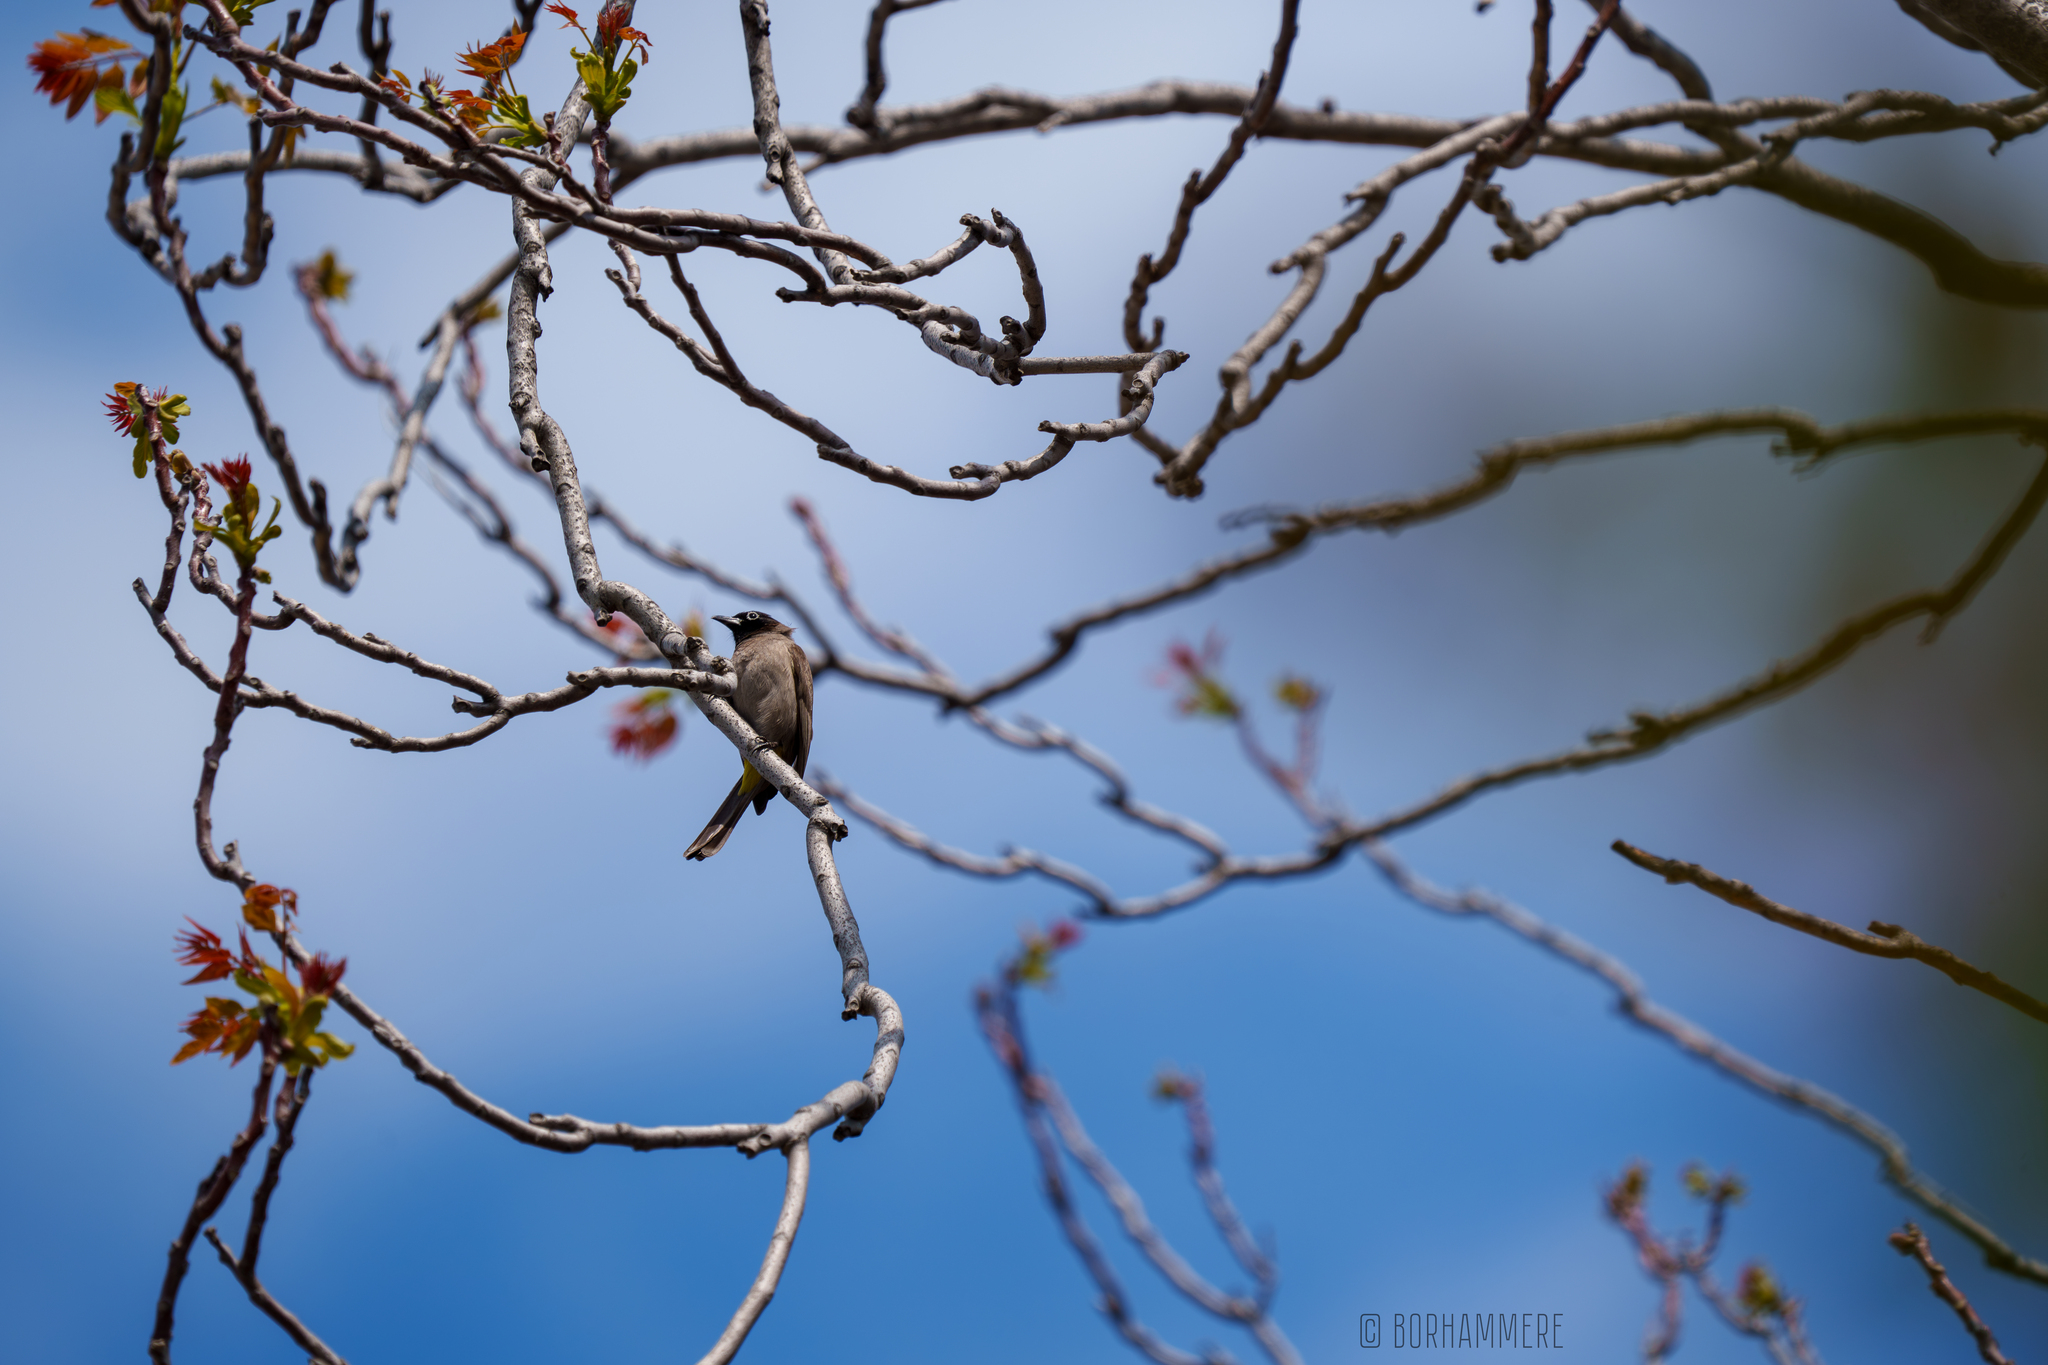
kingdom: Animalia
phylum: Chordata
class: Aves
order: Passeriformes
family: Pycnonotidae
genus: Pycnonotus
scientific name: Pycnonotus xanthopygos
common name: White-spectacled bulbul
